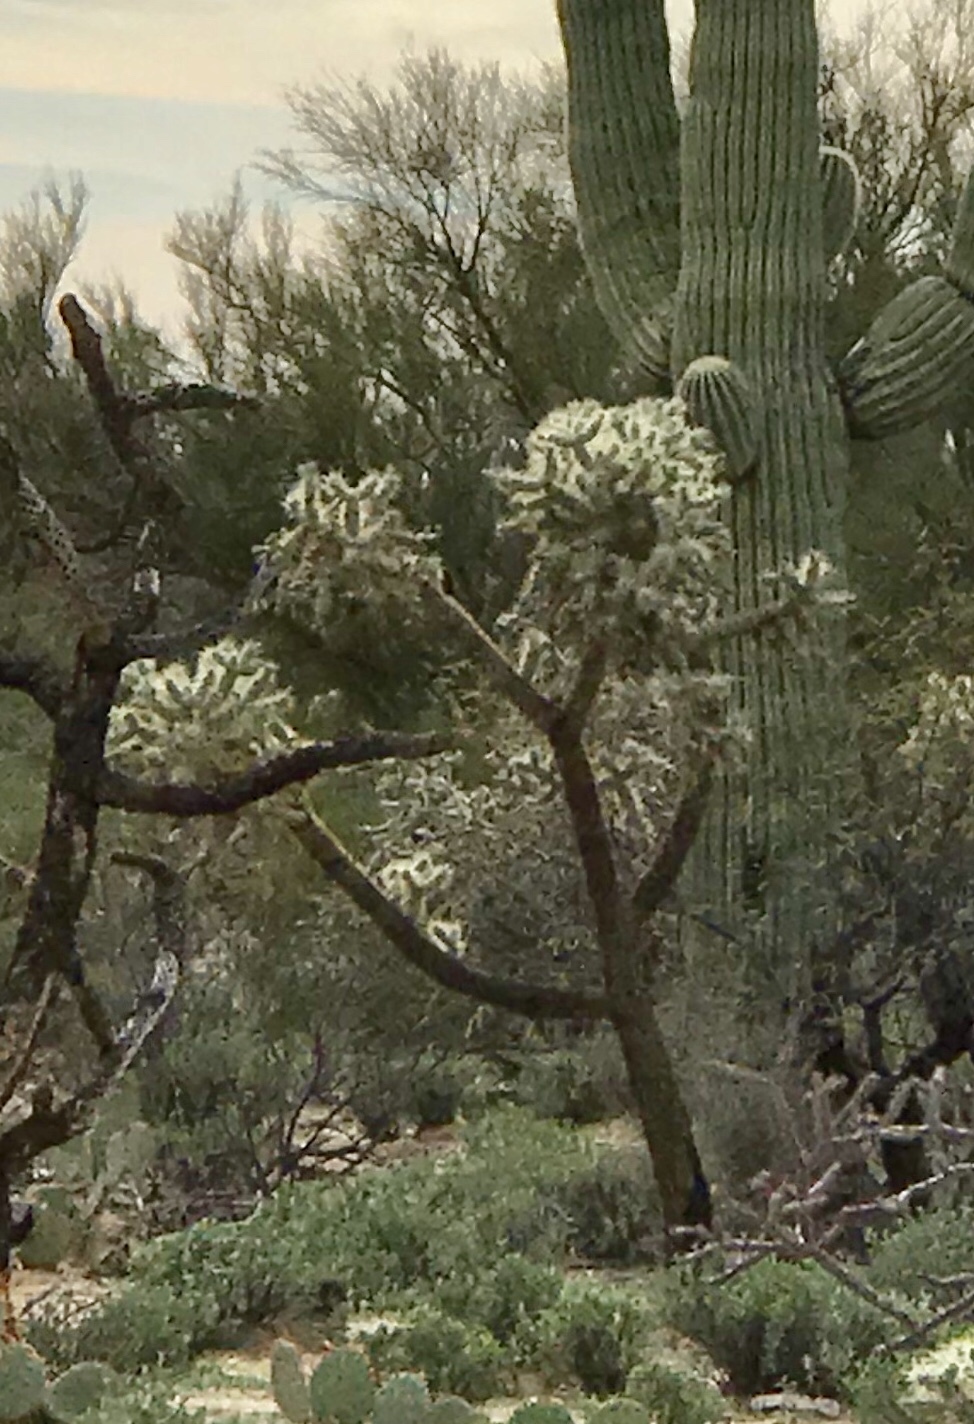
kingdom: Plantae
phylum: Tracheophyta
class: Magnoliopsida
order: Caryophyllales
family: Cactaceae
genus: Cylindropuntia
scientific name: Cylindropuntia fulgida
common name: Jumping cholla
